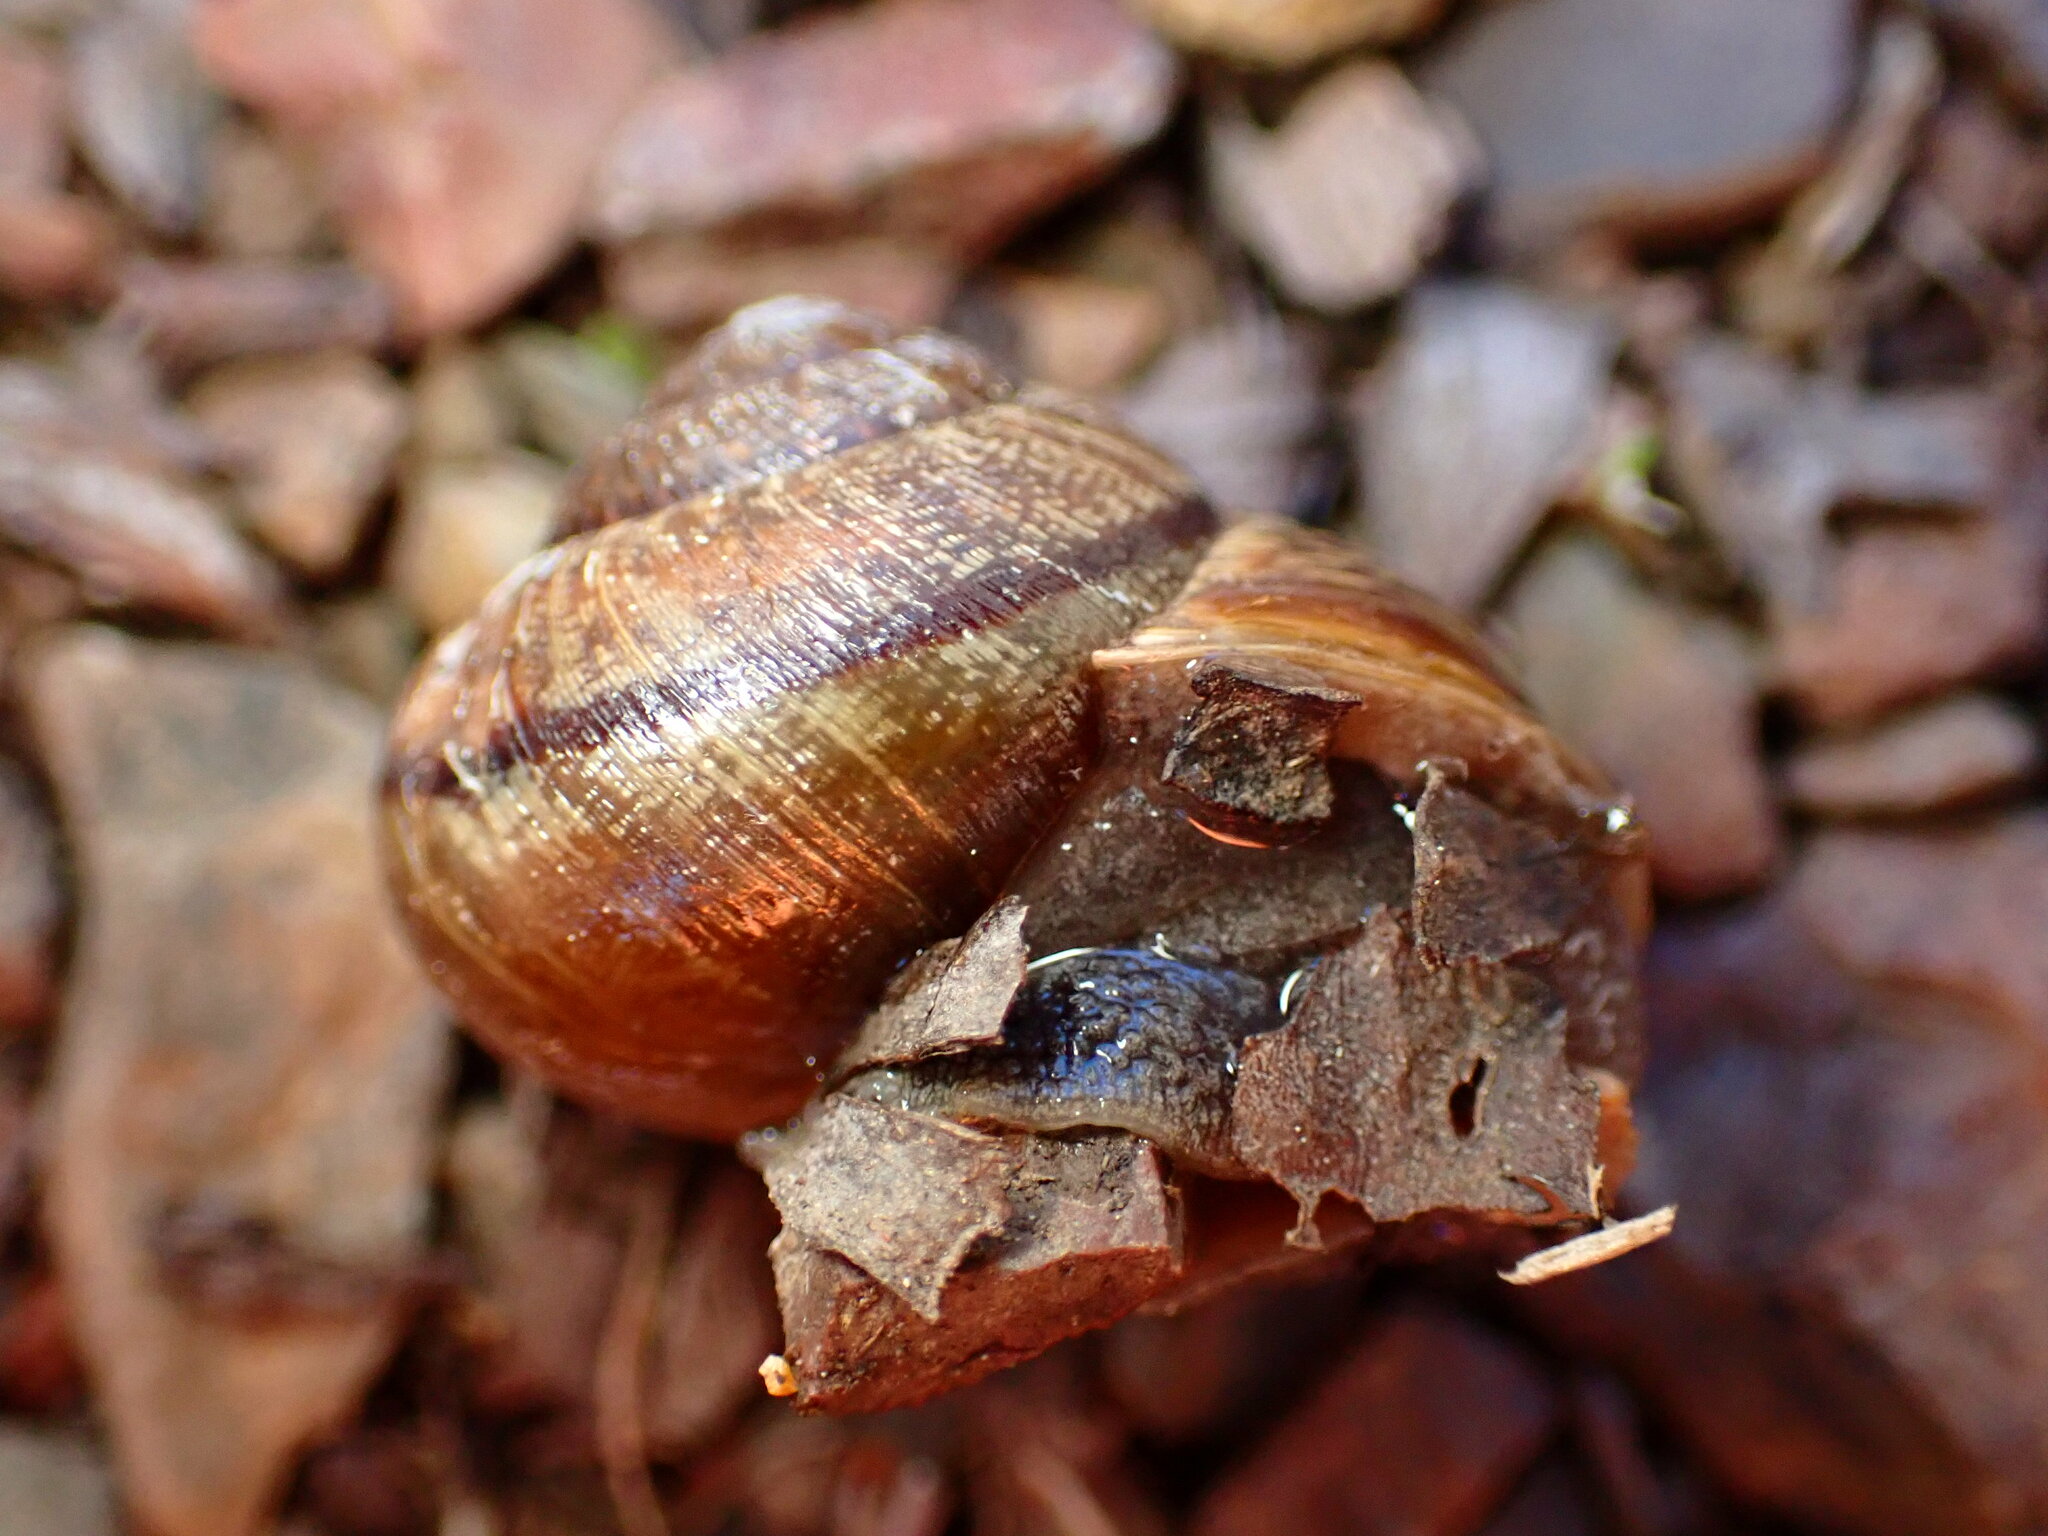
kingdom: Animalia
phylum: Mollusca
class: Gastropoda
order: Stylommatophora
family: Xanthonychidae
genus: Helminthoglypta
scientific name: Helminthoglypta nickliniana
